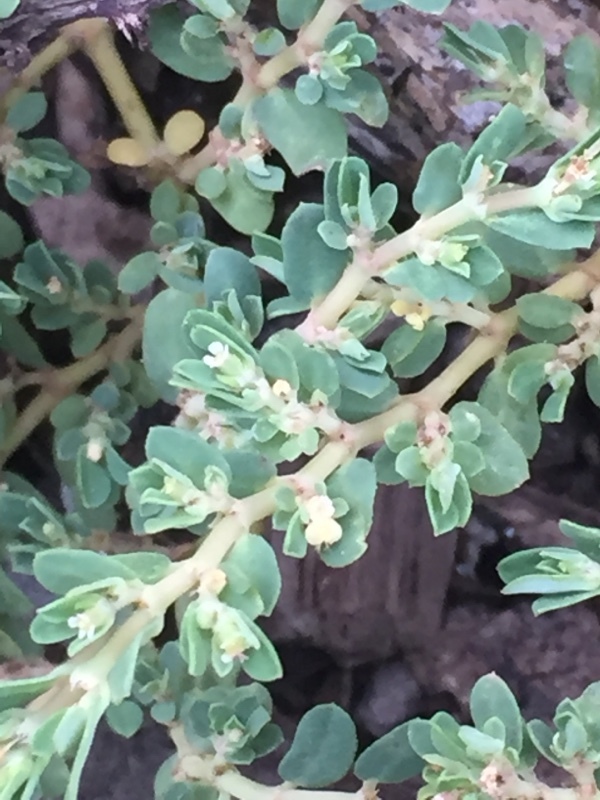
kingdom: Plantae
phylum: Tracheophyta
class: Magnoliopsida
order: Malpighiales
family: Euphorbiaceae
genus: Euphorbia
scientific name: Euphorbia blodgettii
